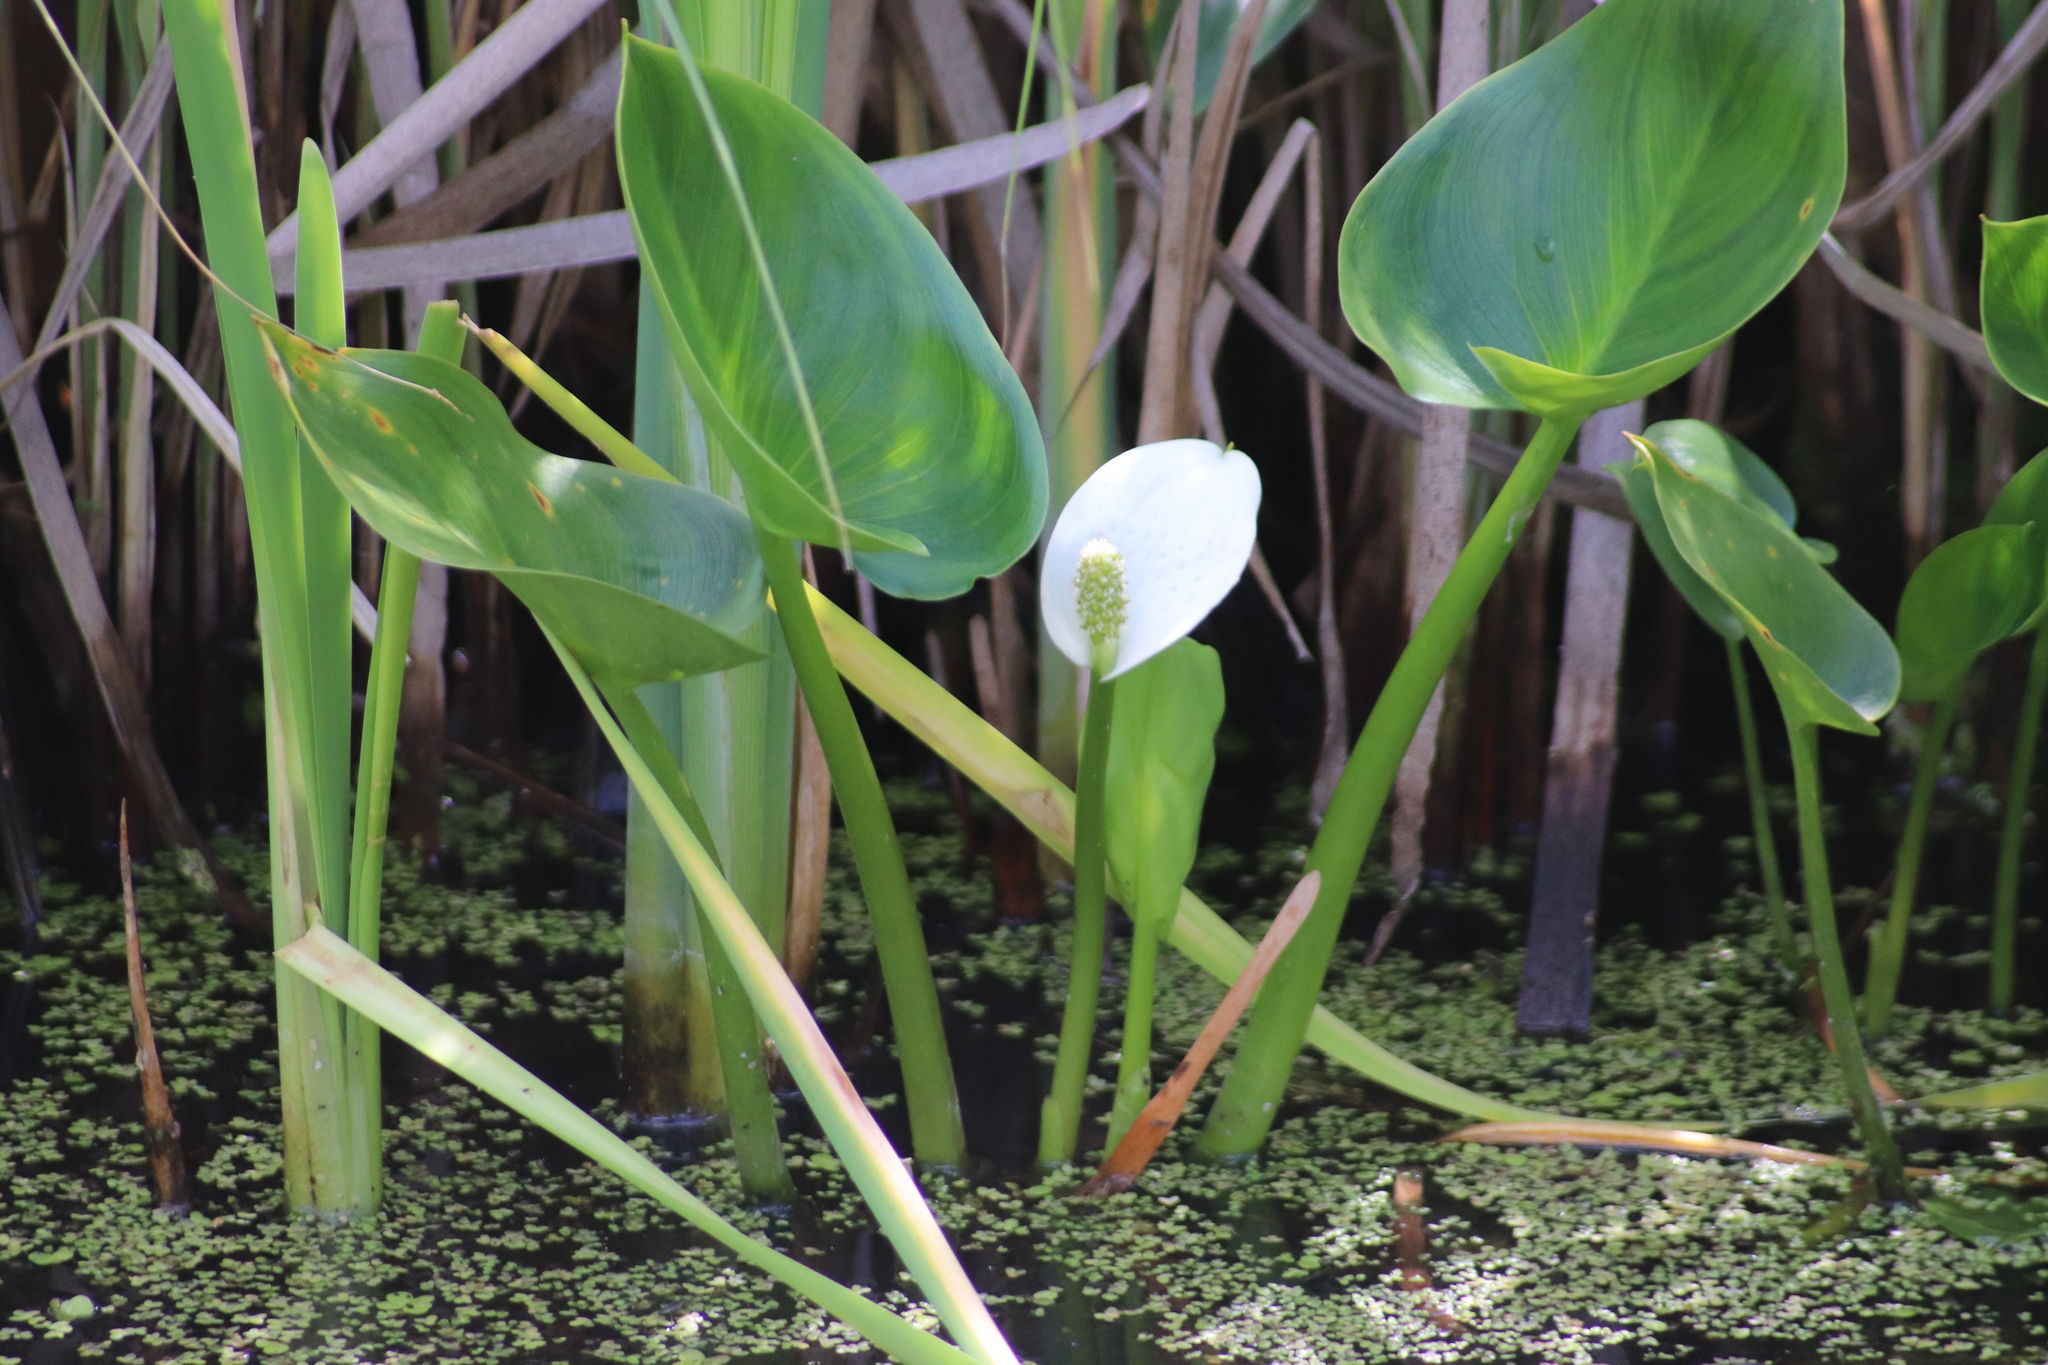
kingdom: Plantae
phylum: Tracheophyta
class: Liliopsida
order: Alismatales
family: Araceae
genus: Calla
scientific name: Calla palustris
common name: Bog arum
